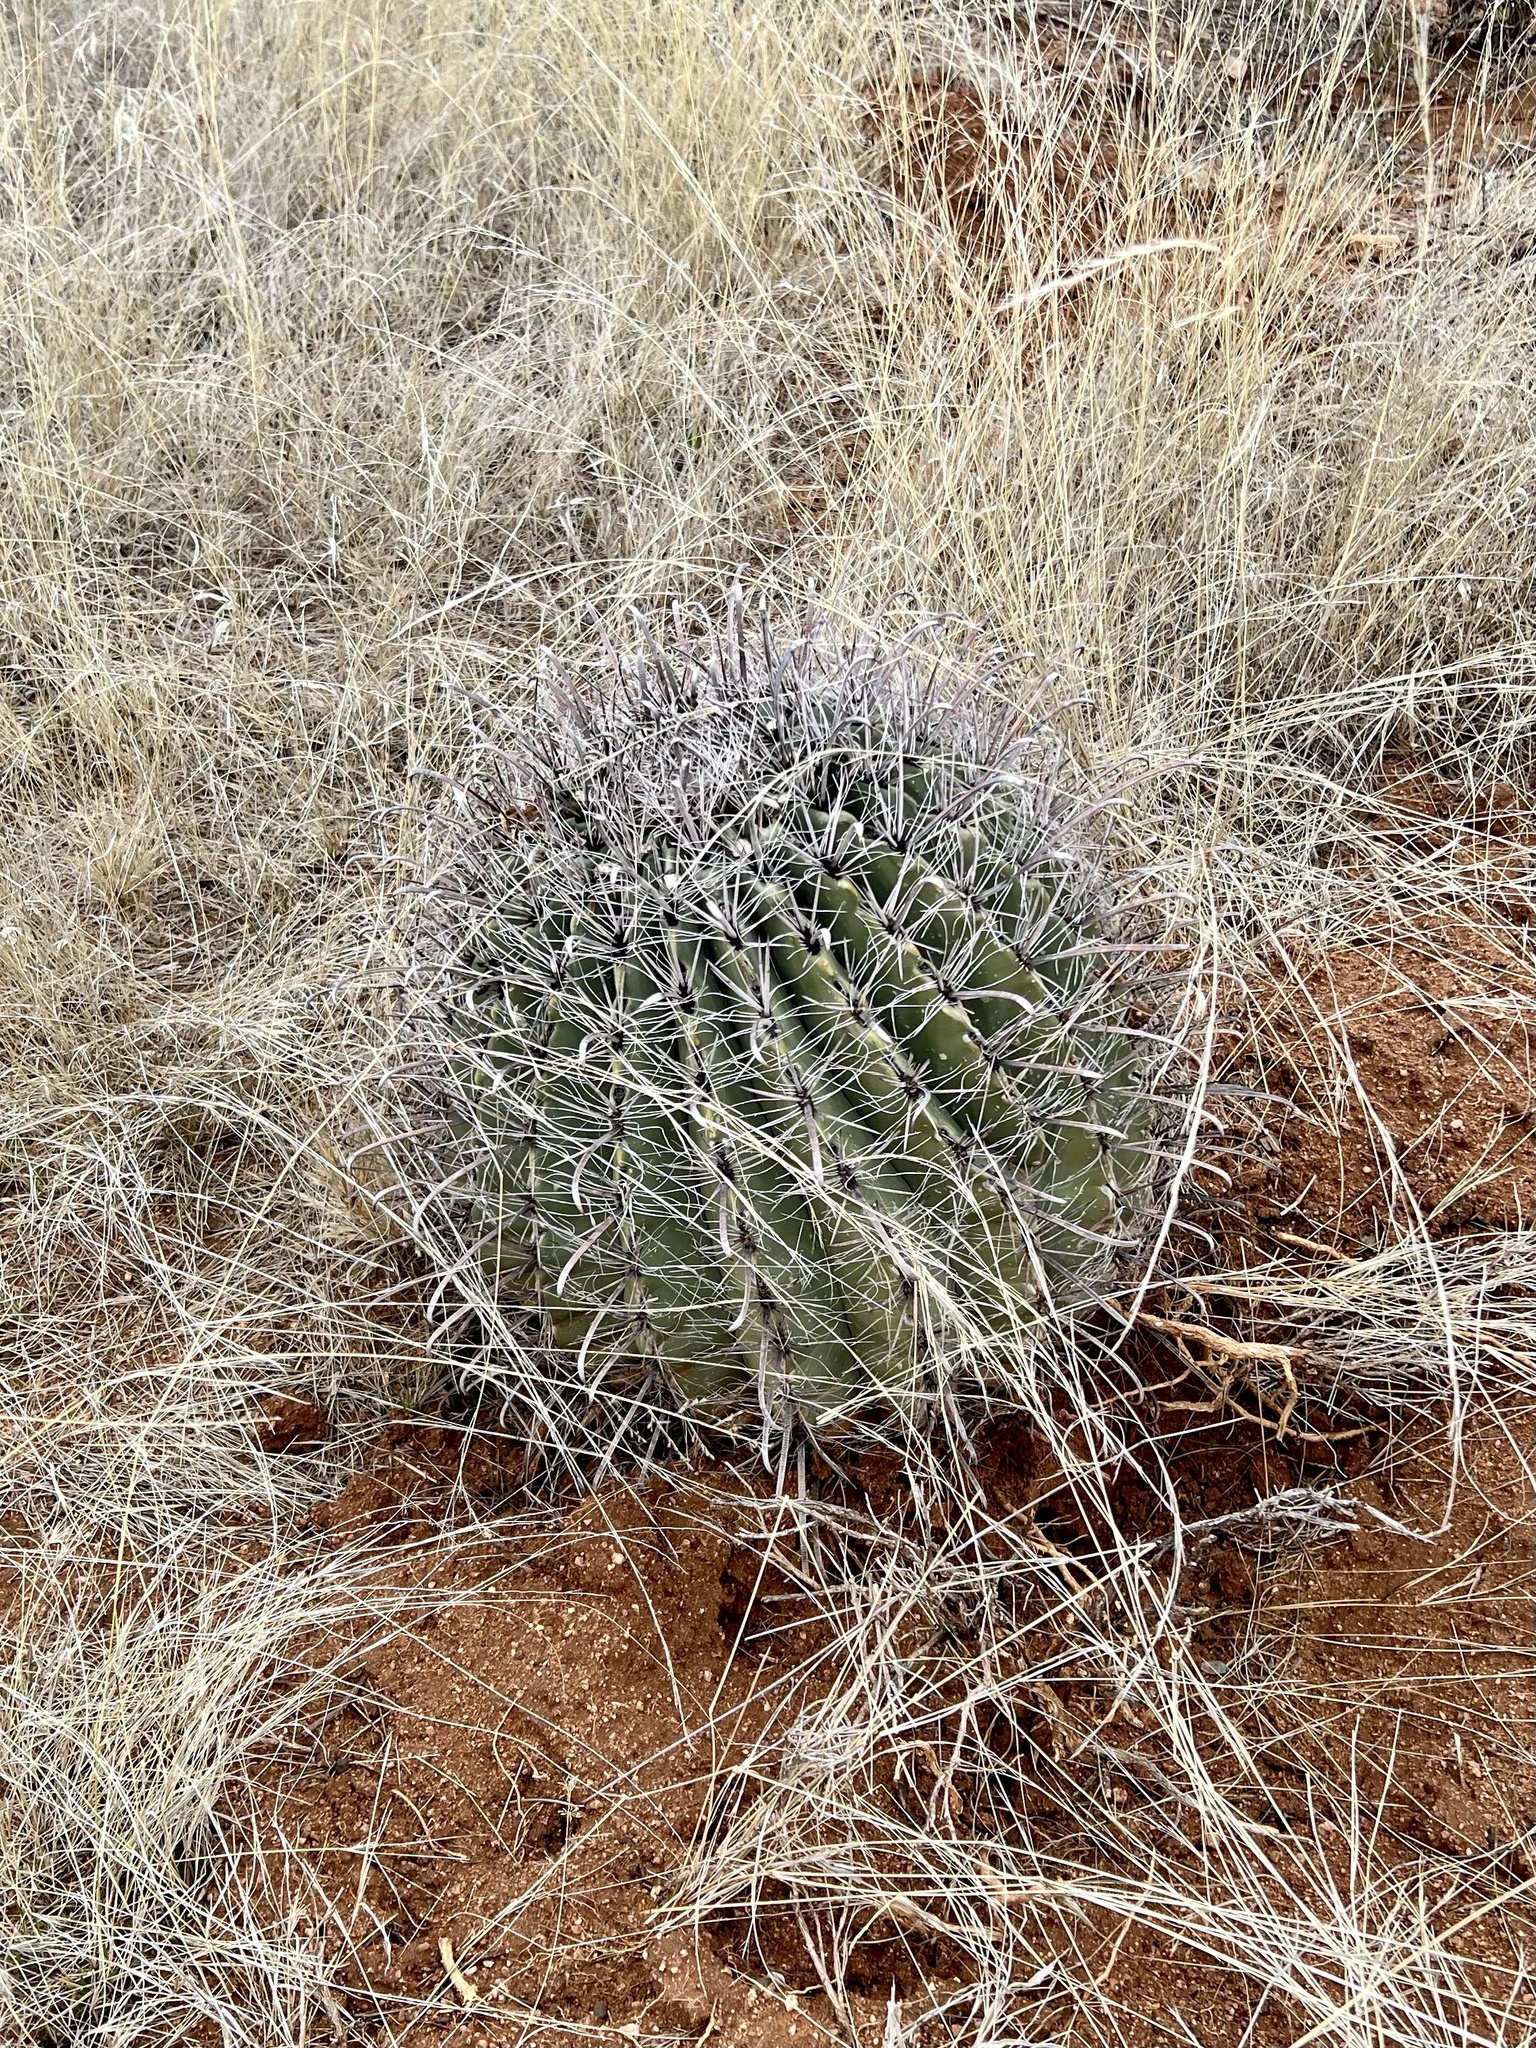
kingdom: Plantae
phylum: Tracheophyta
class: Magnoliopsida
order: Caryophyllales
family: Cactaceae
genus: Ferocactus
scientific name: Ferocactus wislizeni
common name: Candy barrel cactus
